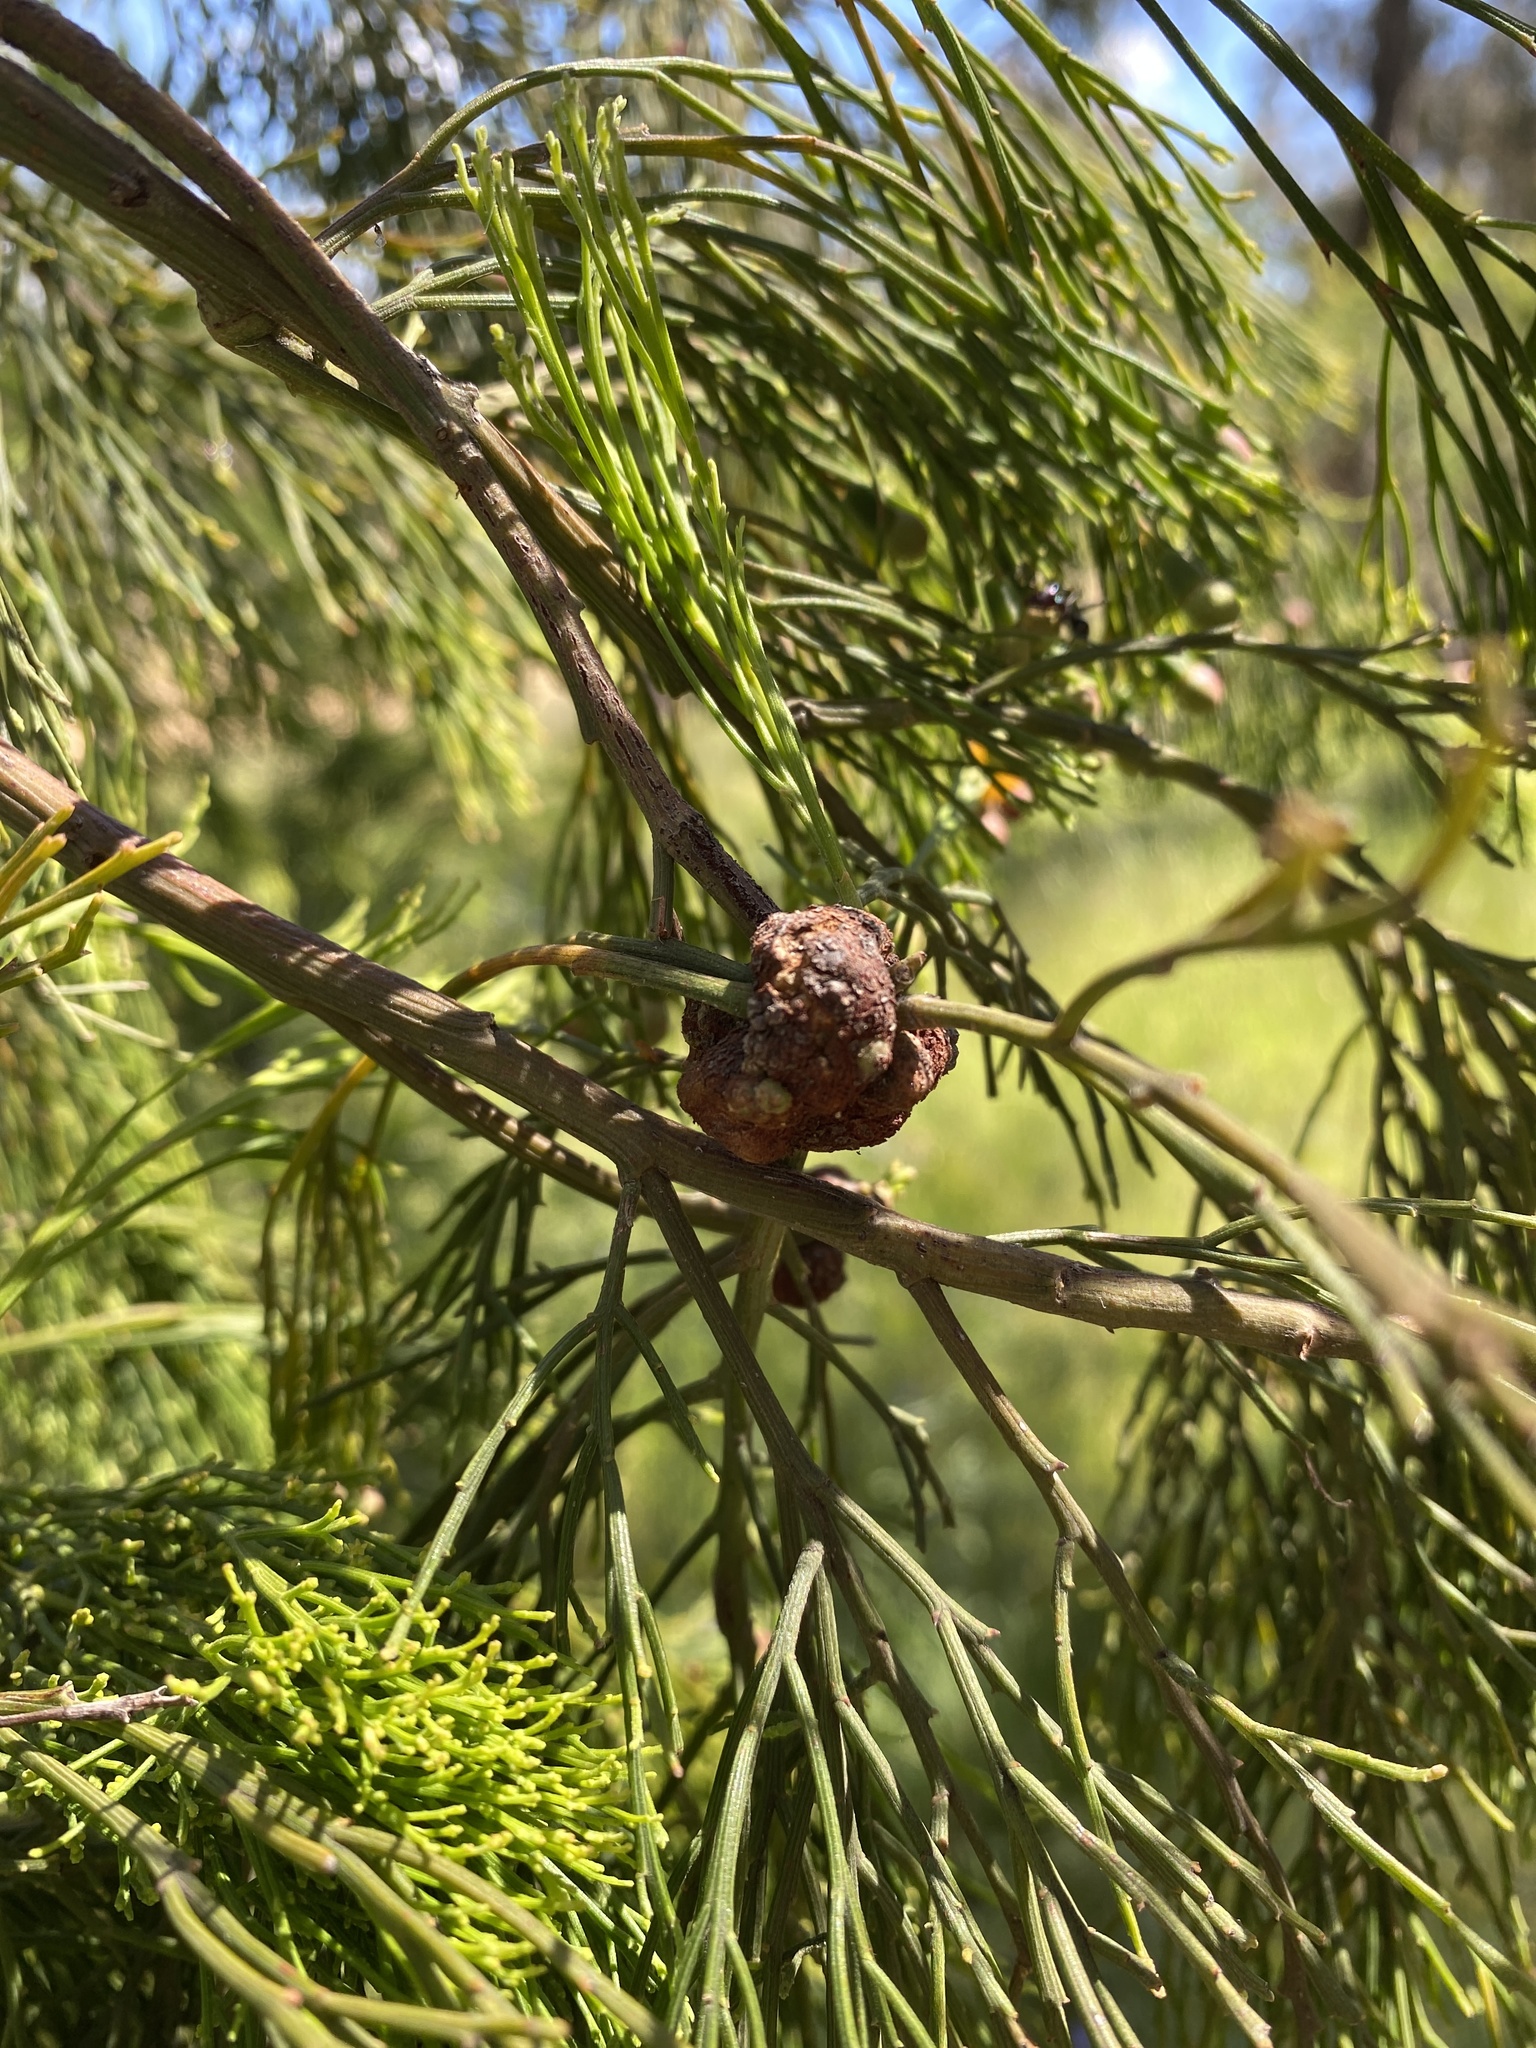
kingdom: Plantae
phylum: Tracheophyta
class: Magnoliopsida
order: Santalales
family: Santalaceae
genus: Exocarpos
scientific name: Exocarpos cupressiformis
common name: Cherry ballart
